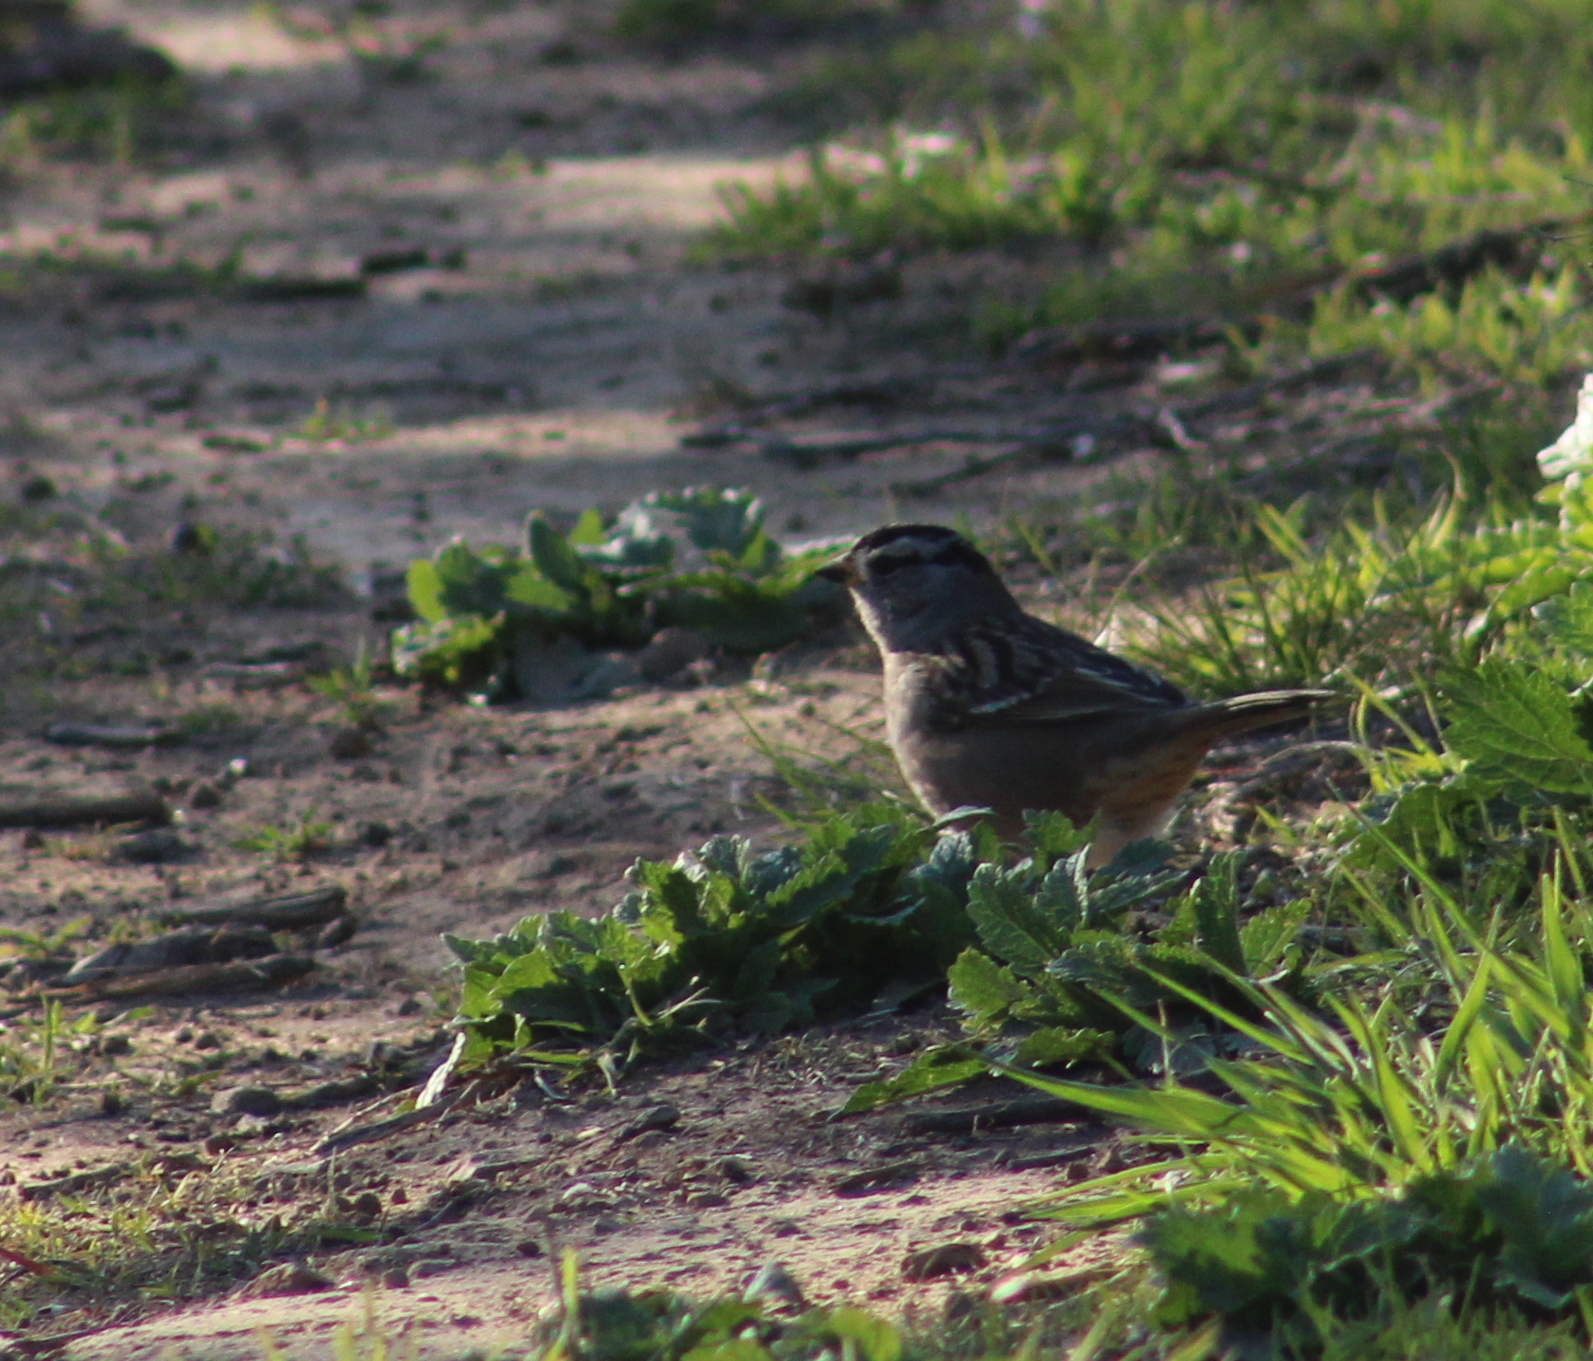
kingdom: Animalia
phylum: Chordata
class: Aves
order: Passeriformes
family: Passerellidae
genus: Zonotrichia
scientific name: Zonotrichia leucophrys
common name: White-crowned sparrow
